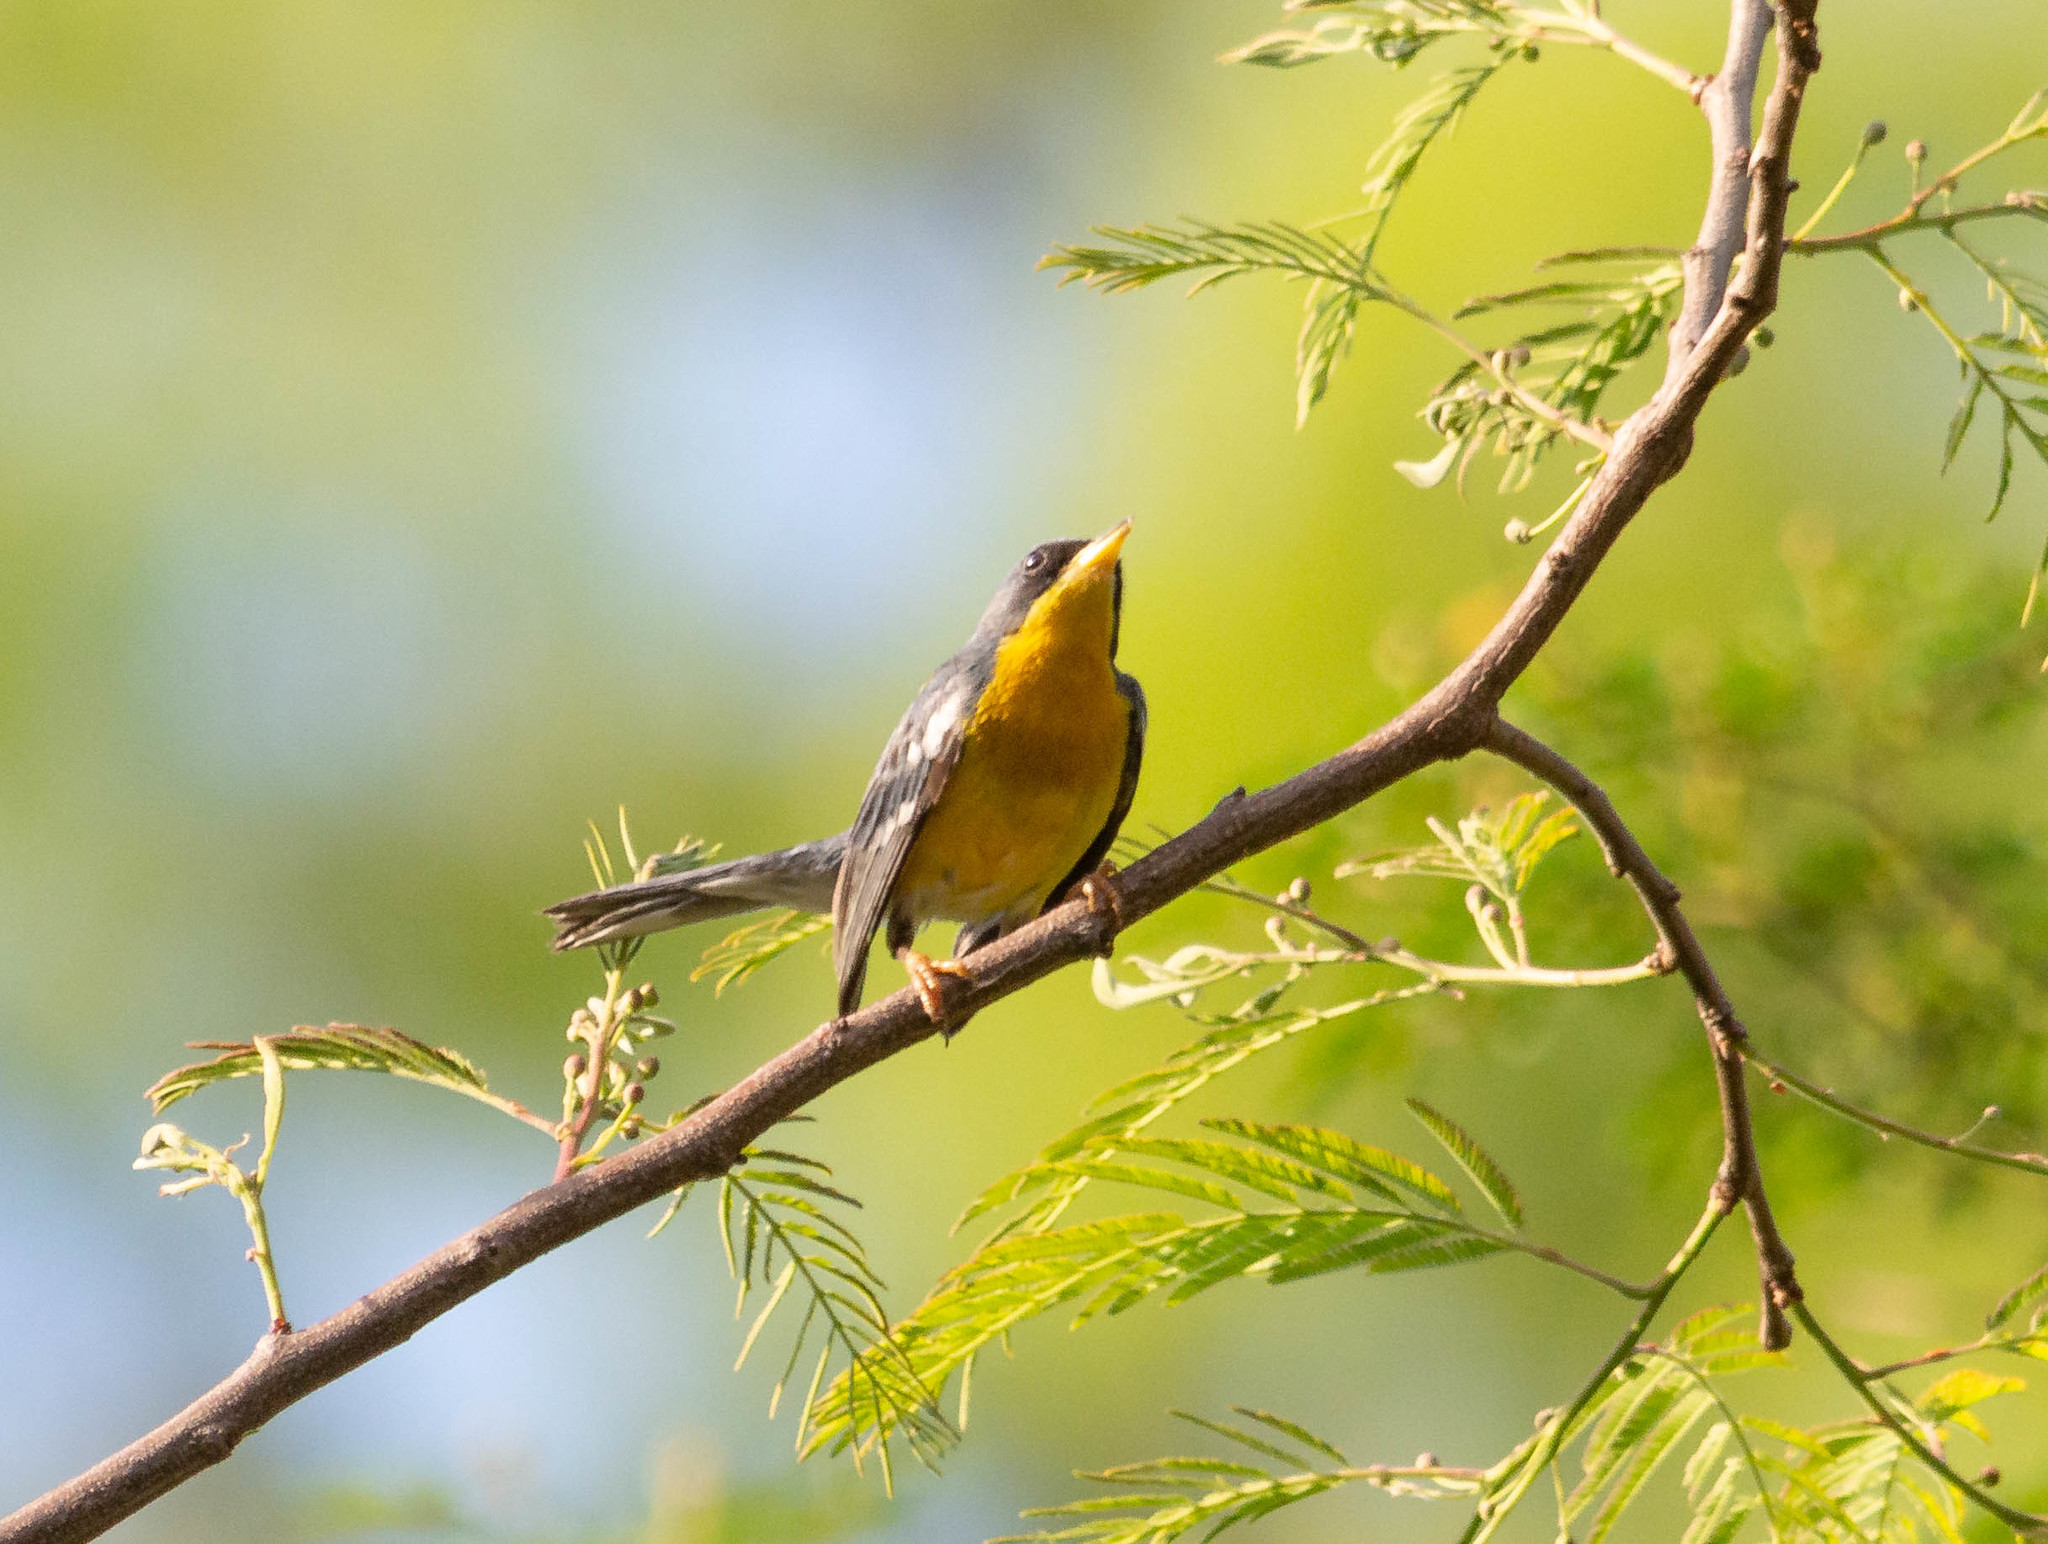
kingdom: Animalia
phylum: Chordata
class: Aves
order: Passeriformes
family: Parulidae
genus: Setophaga
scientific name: Setophaga pitiayumi
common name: Tropical parula
